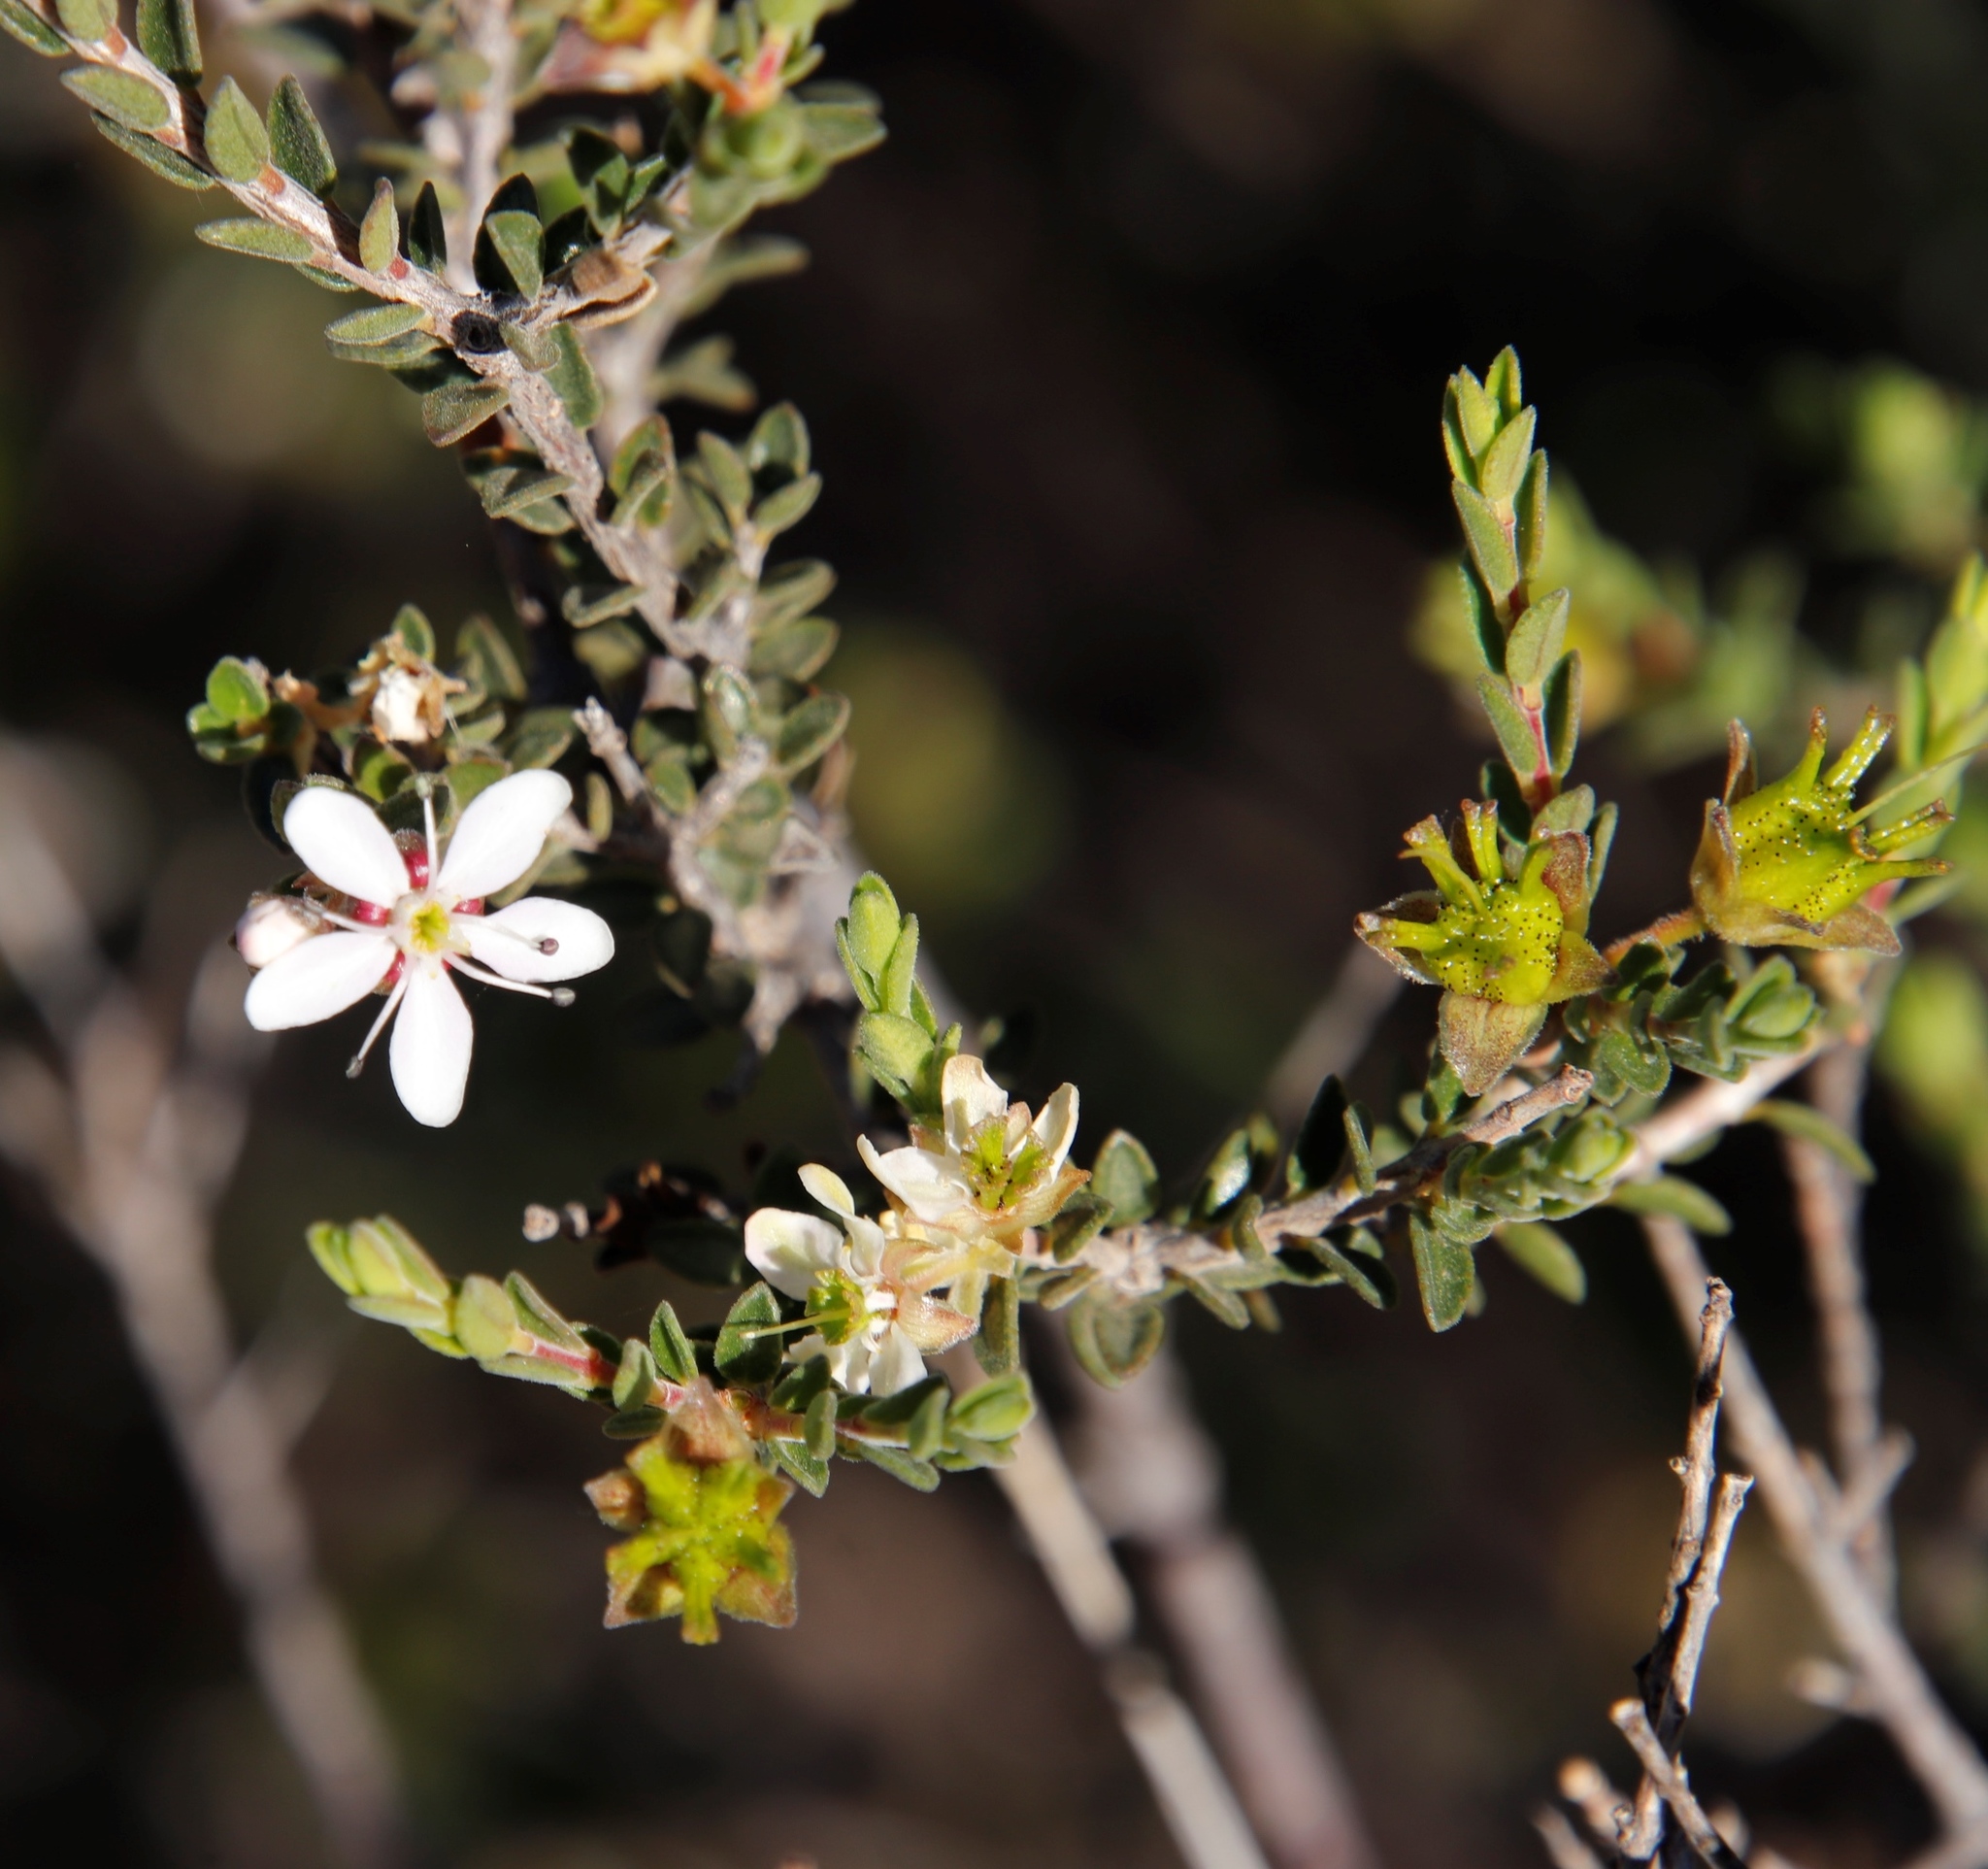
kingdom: Plantae
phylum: Tracheophyta
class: Magnoliopsida
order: Sapindales
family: Rutaceae
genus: Agathosma
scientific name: Agathosma spinescens
